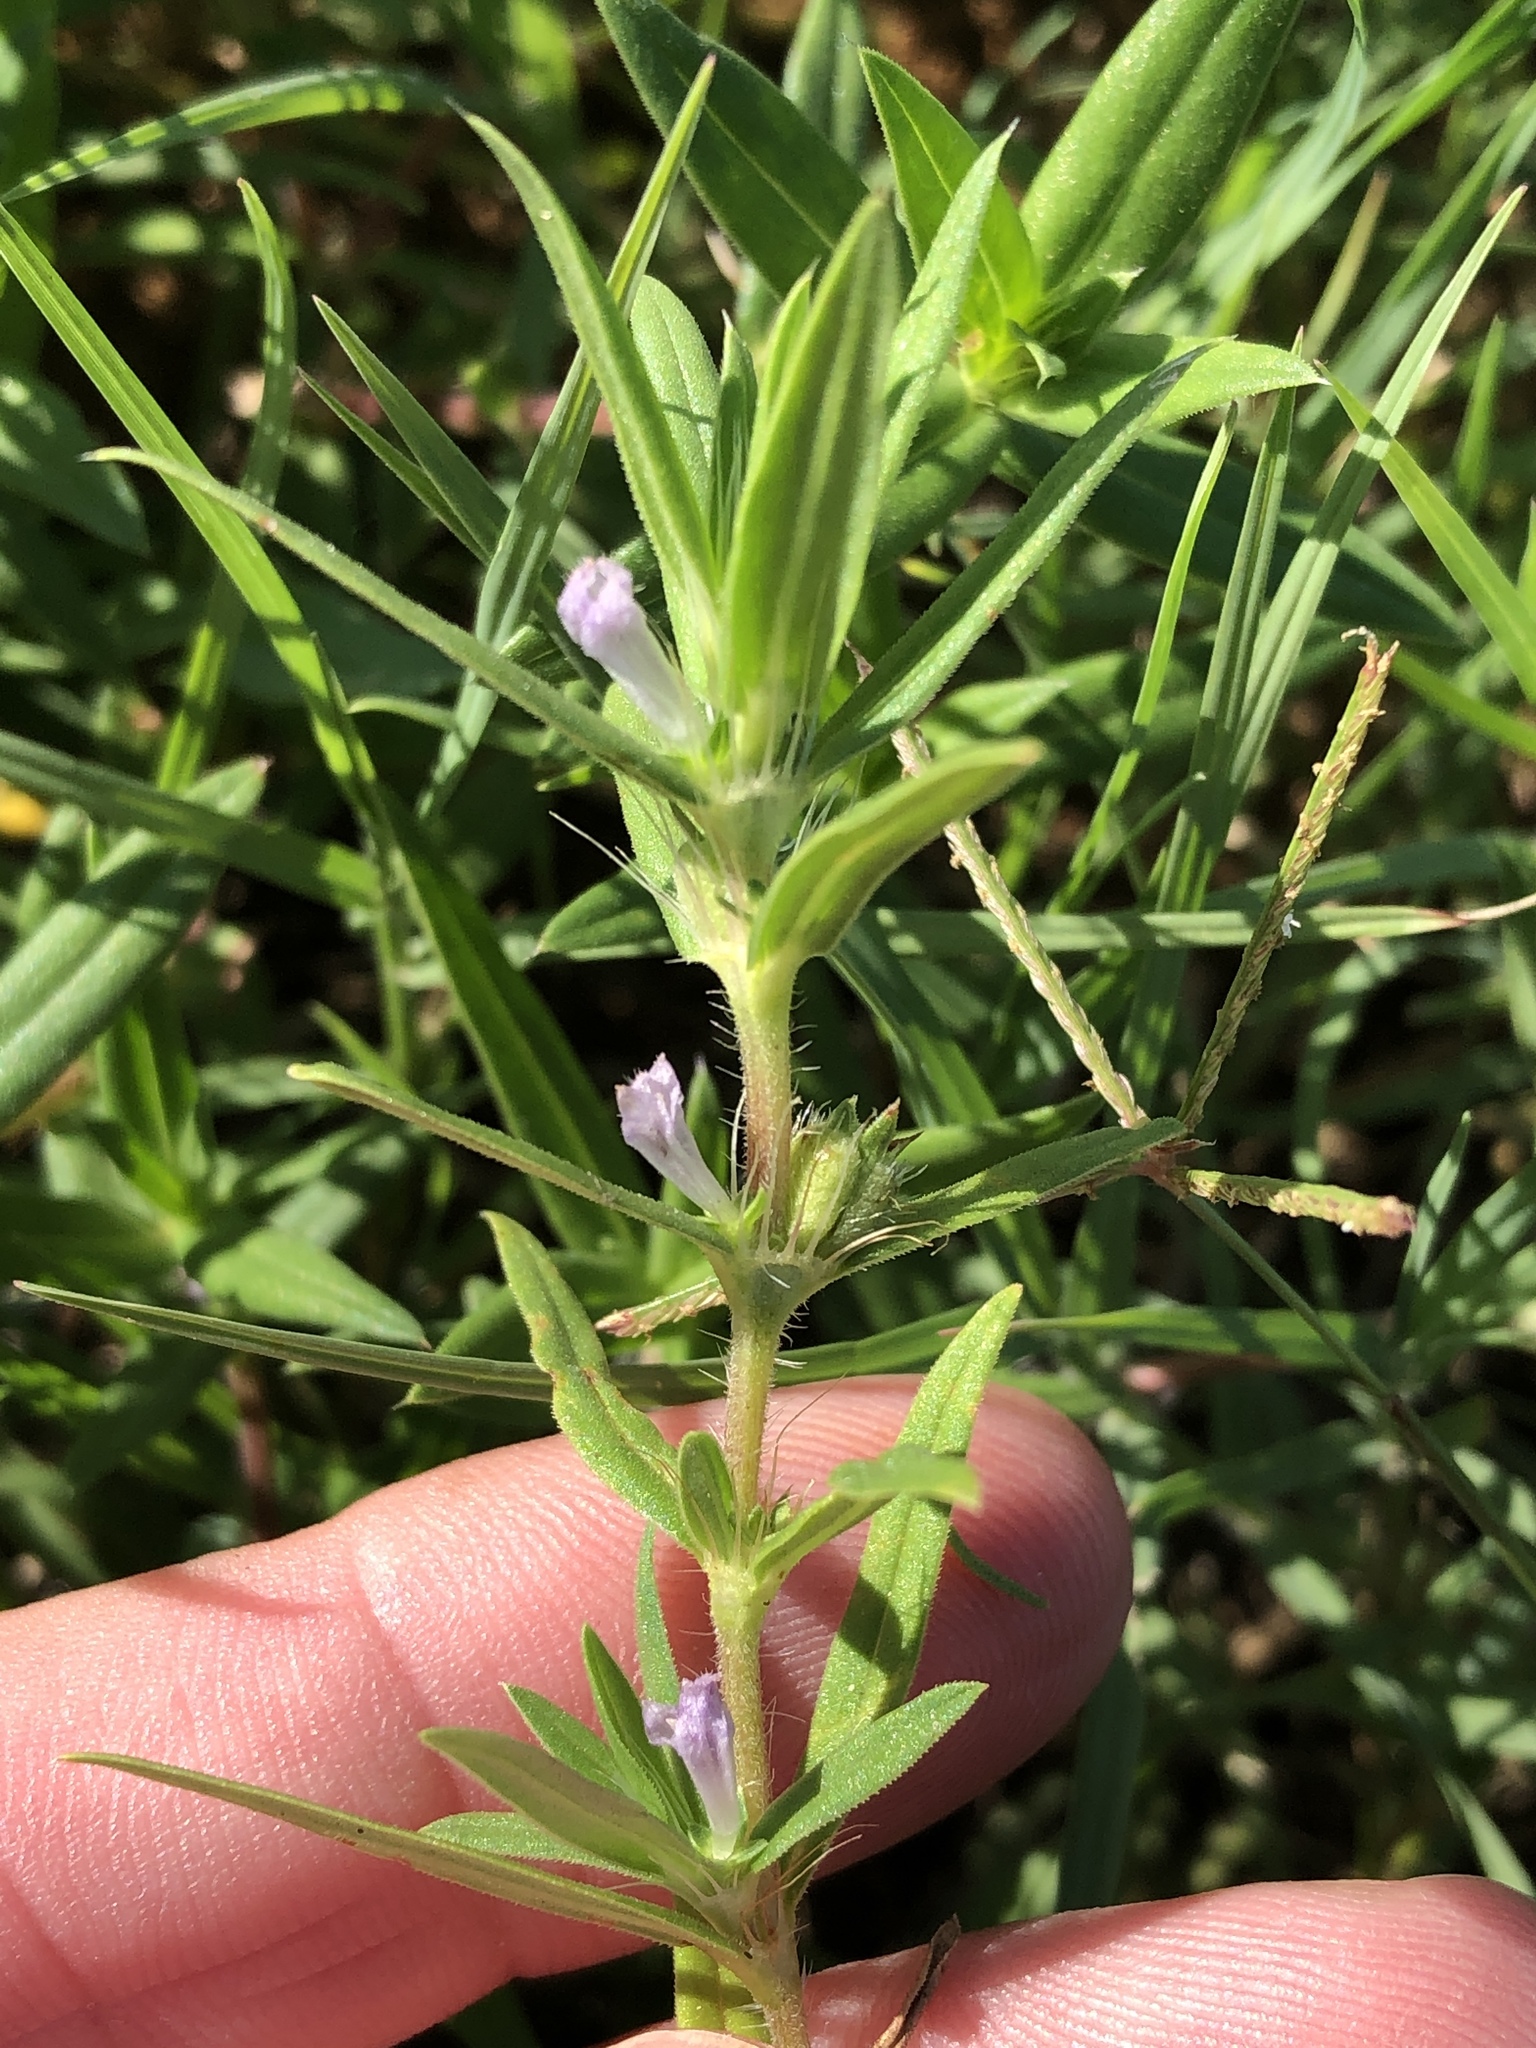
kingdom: Plantae
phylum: Tracheophyta
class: Magnoliopsida
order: Gentianales
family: Rubiaceae
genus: Hexasepalum
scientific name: Hexasepalum teres
